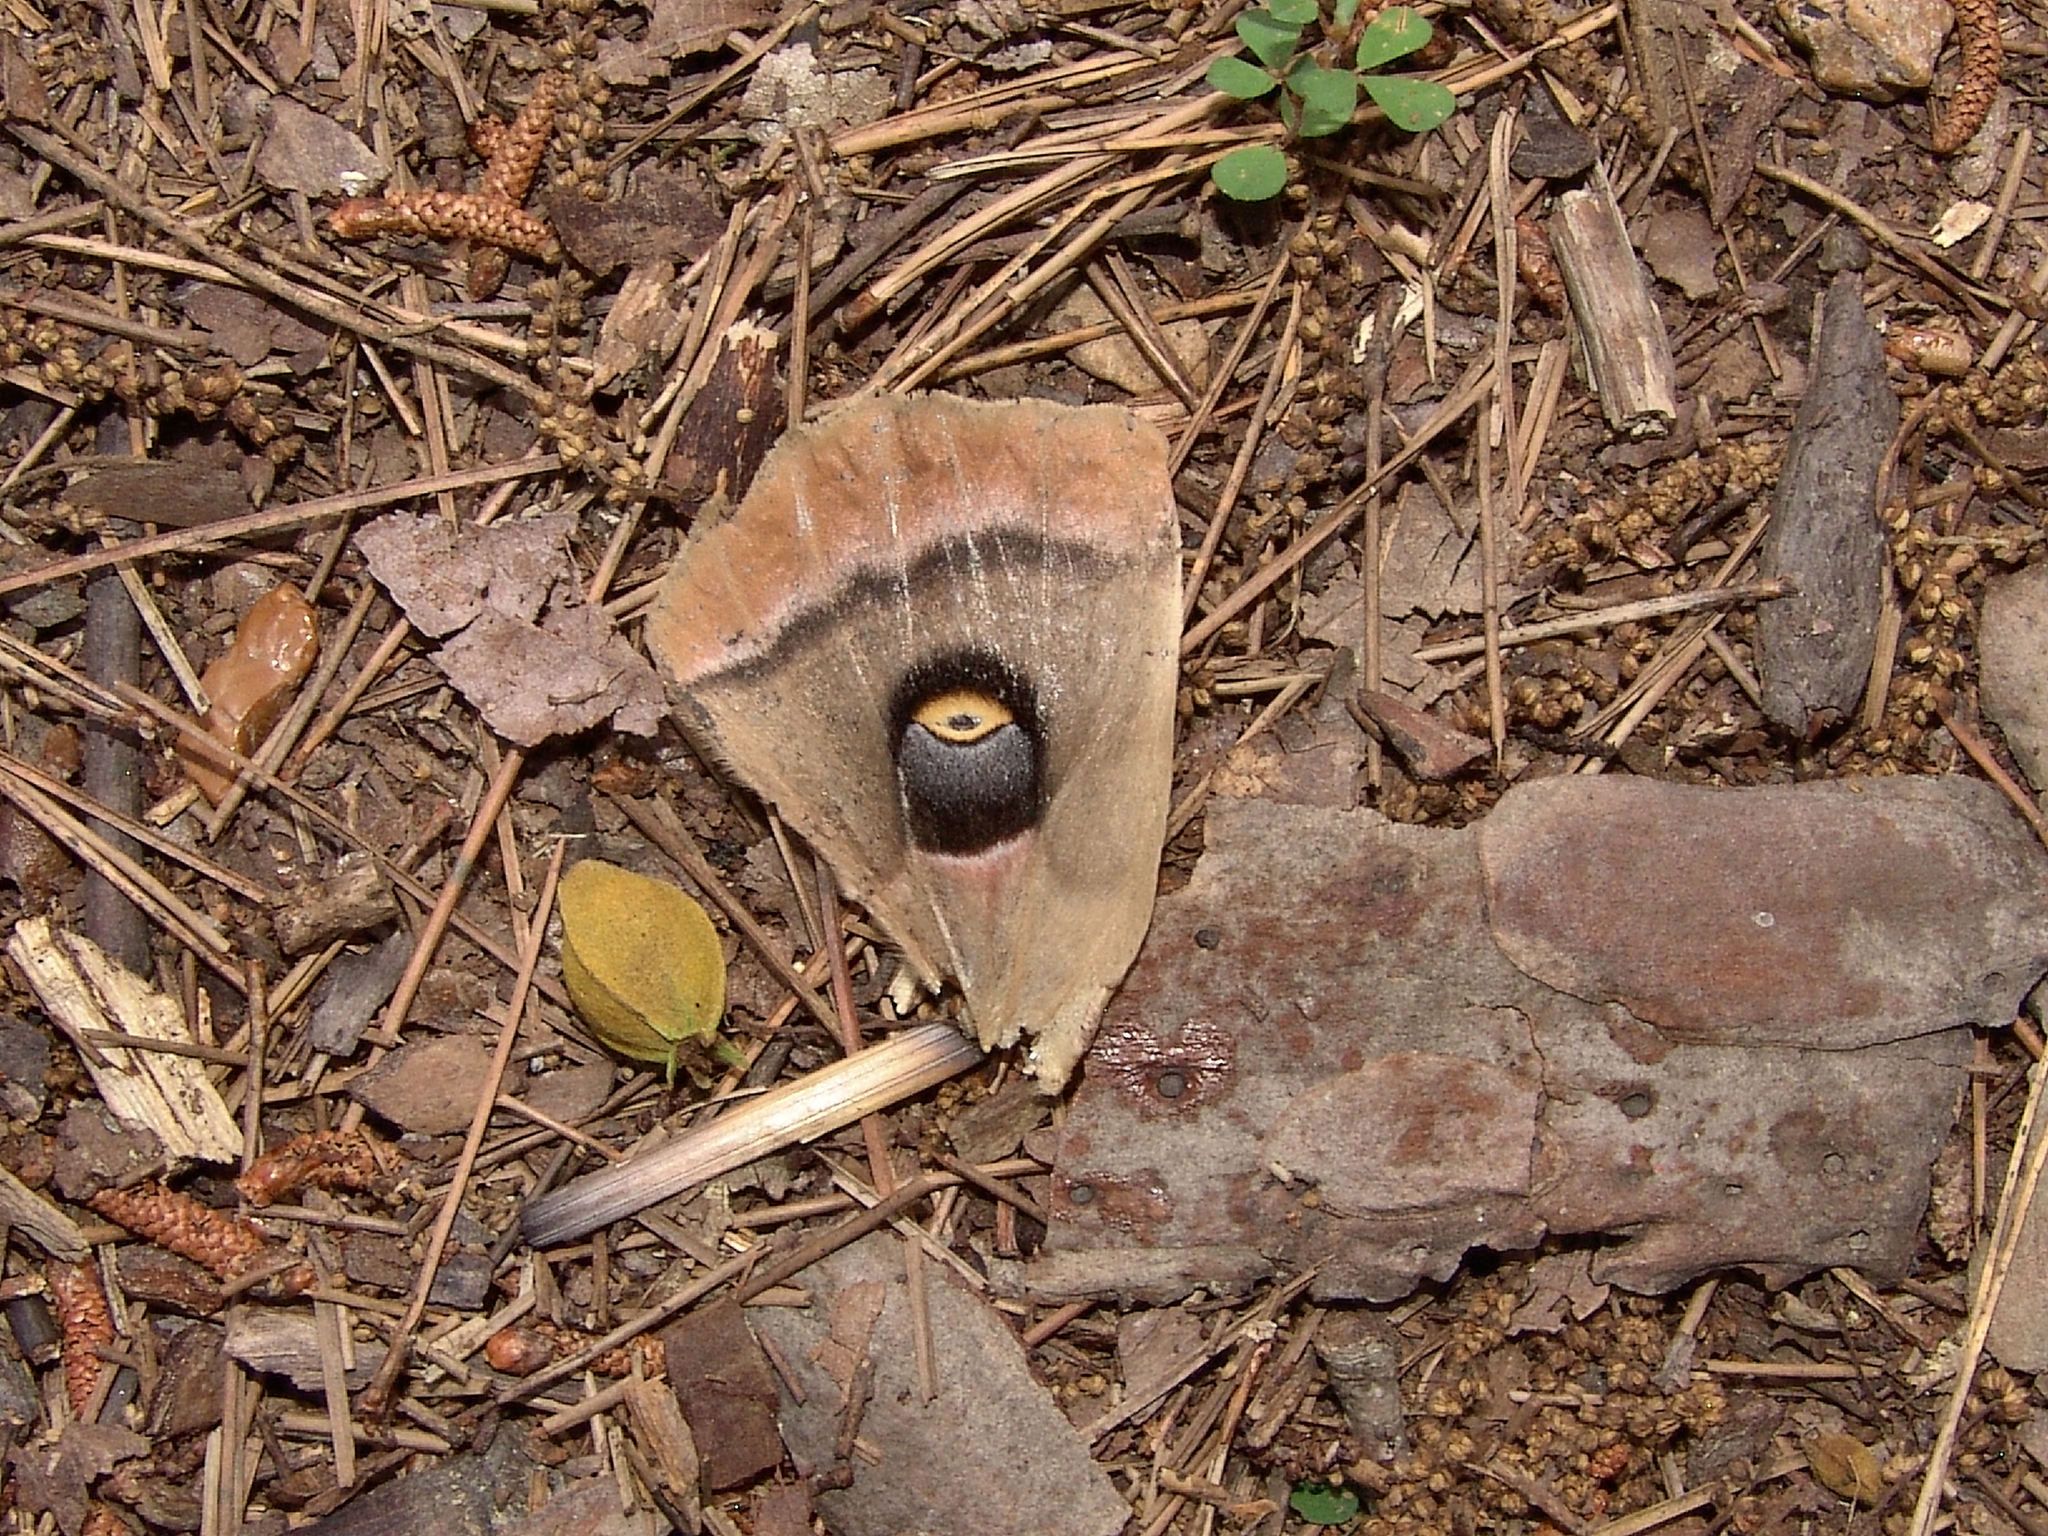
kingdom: Animalia
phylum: Arthropoda
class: Insecta
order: Lepidoptera
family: Saturniidae
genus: Antheraea
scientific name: Antheraea polyphemus
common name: Polyphemus moth
